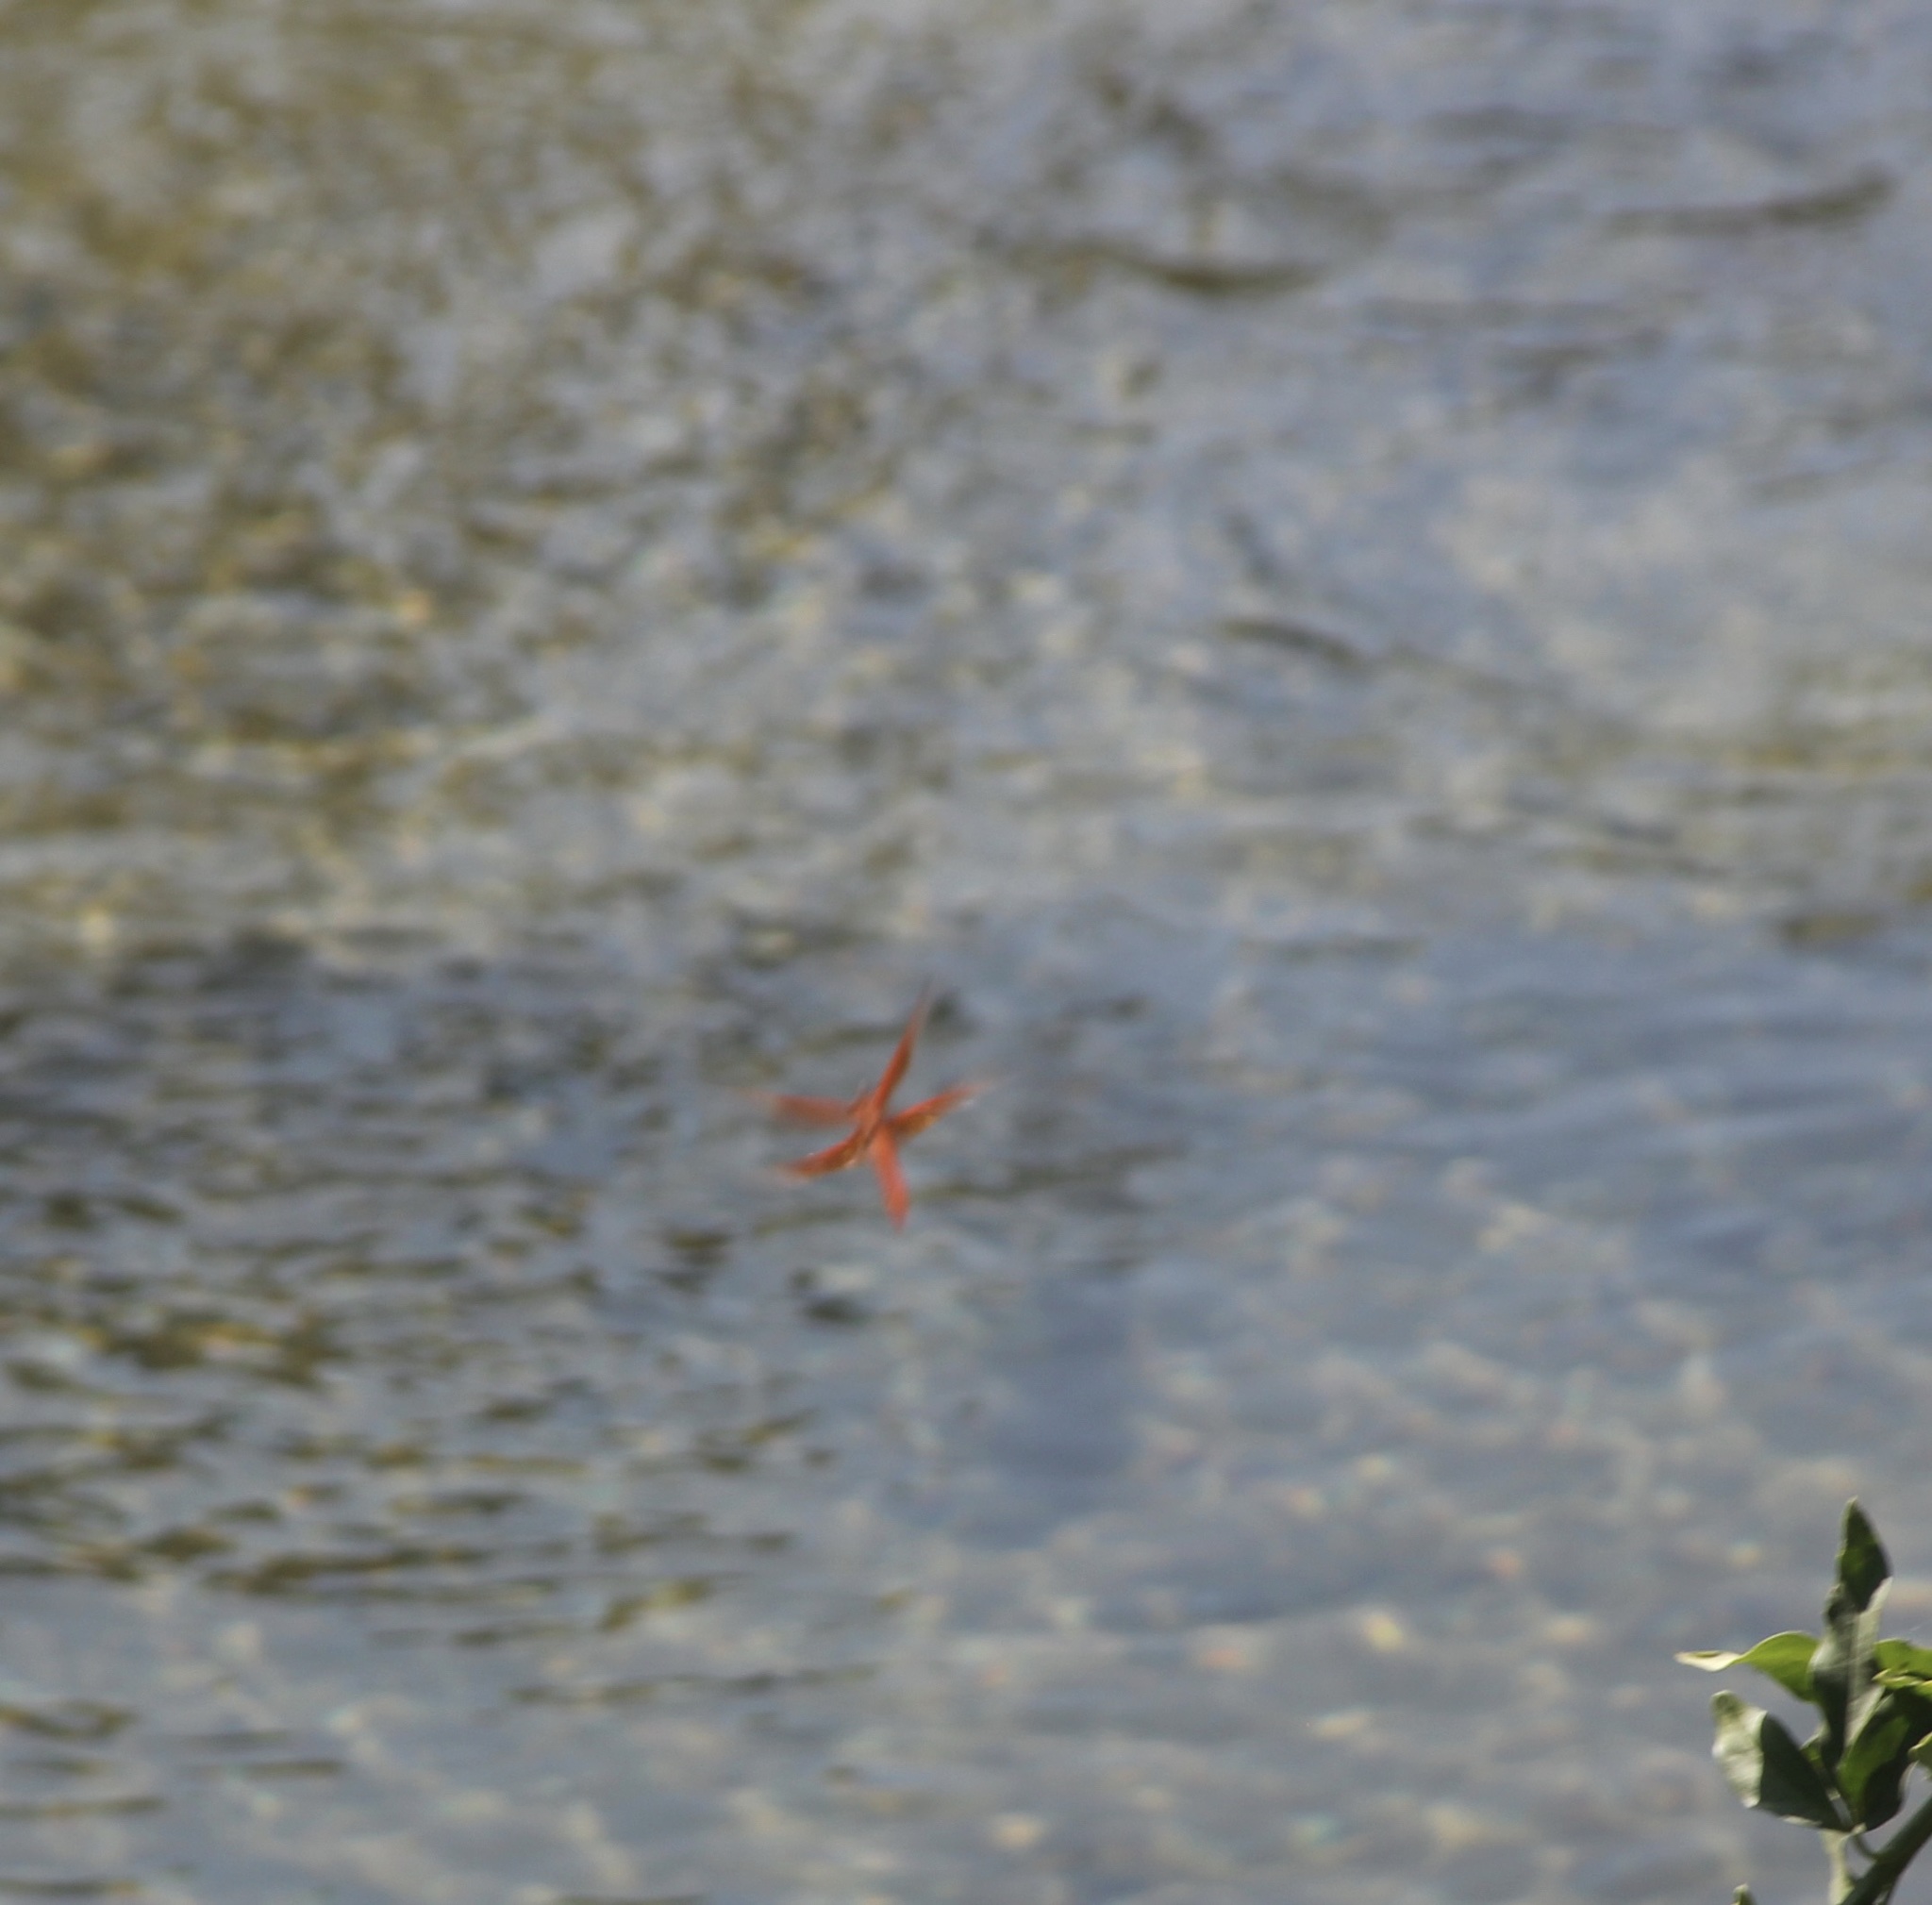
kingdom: Animalia
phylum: Arthropoda
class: Insecta
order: Odonata
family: Libellulidae
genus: Libellula
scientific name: Libellula saturata
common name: Flame skimmer
